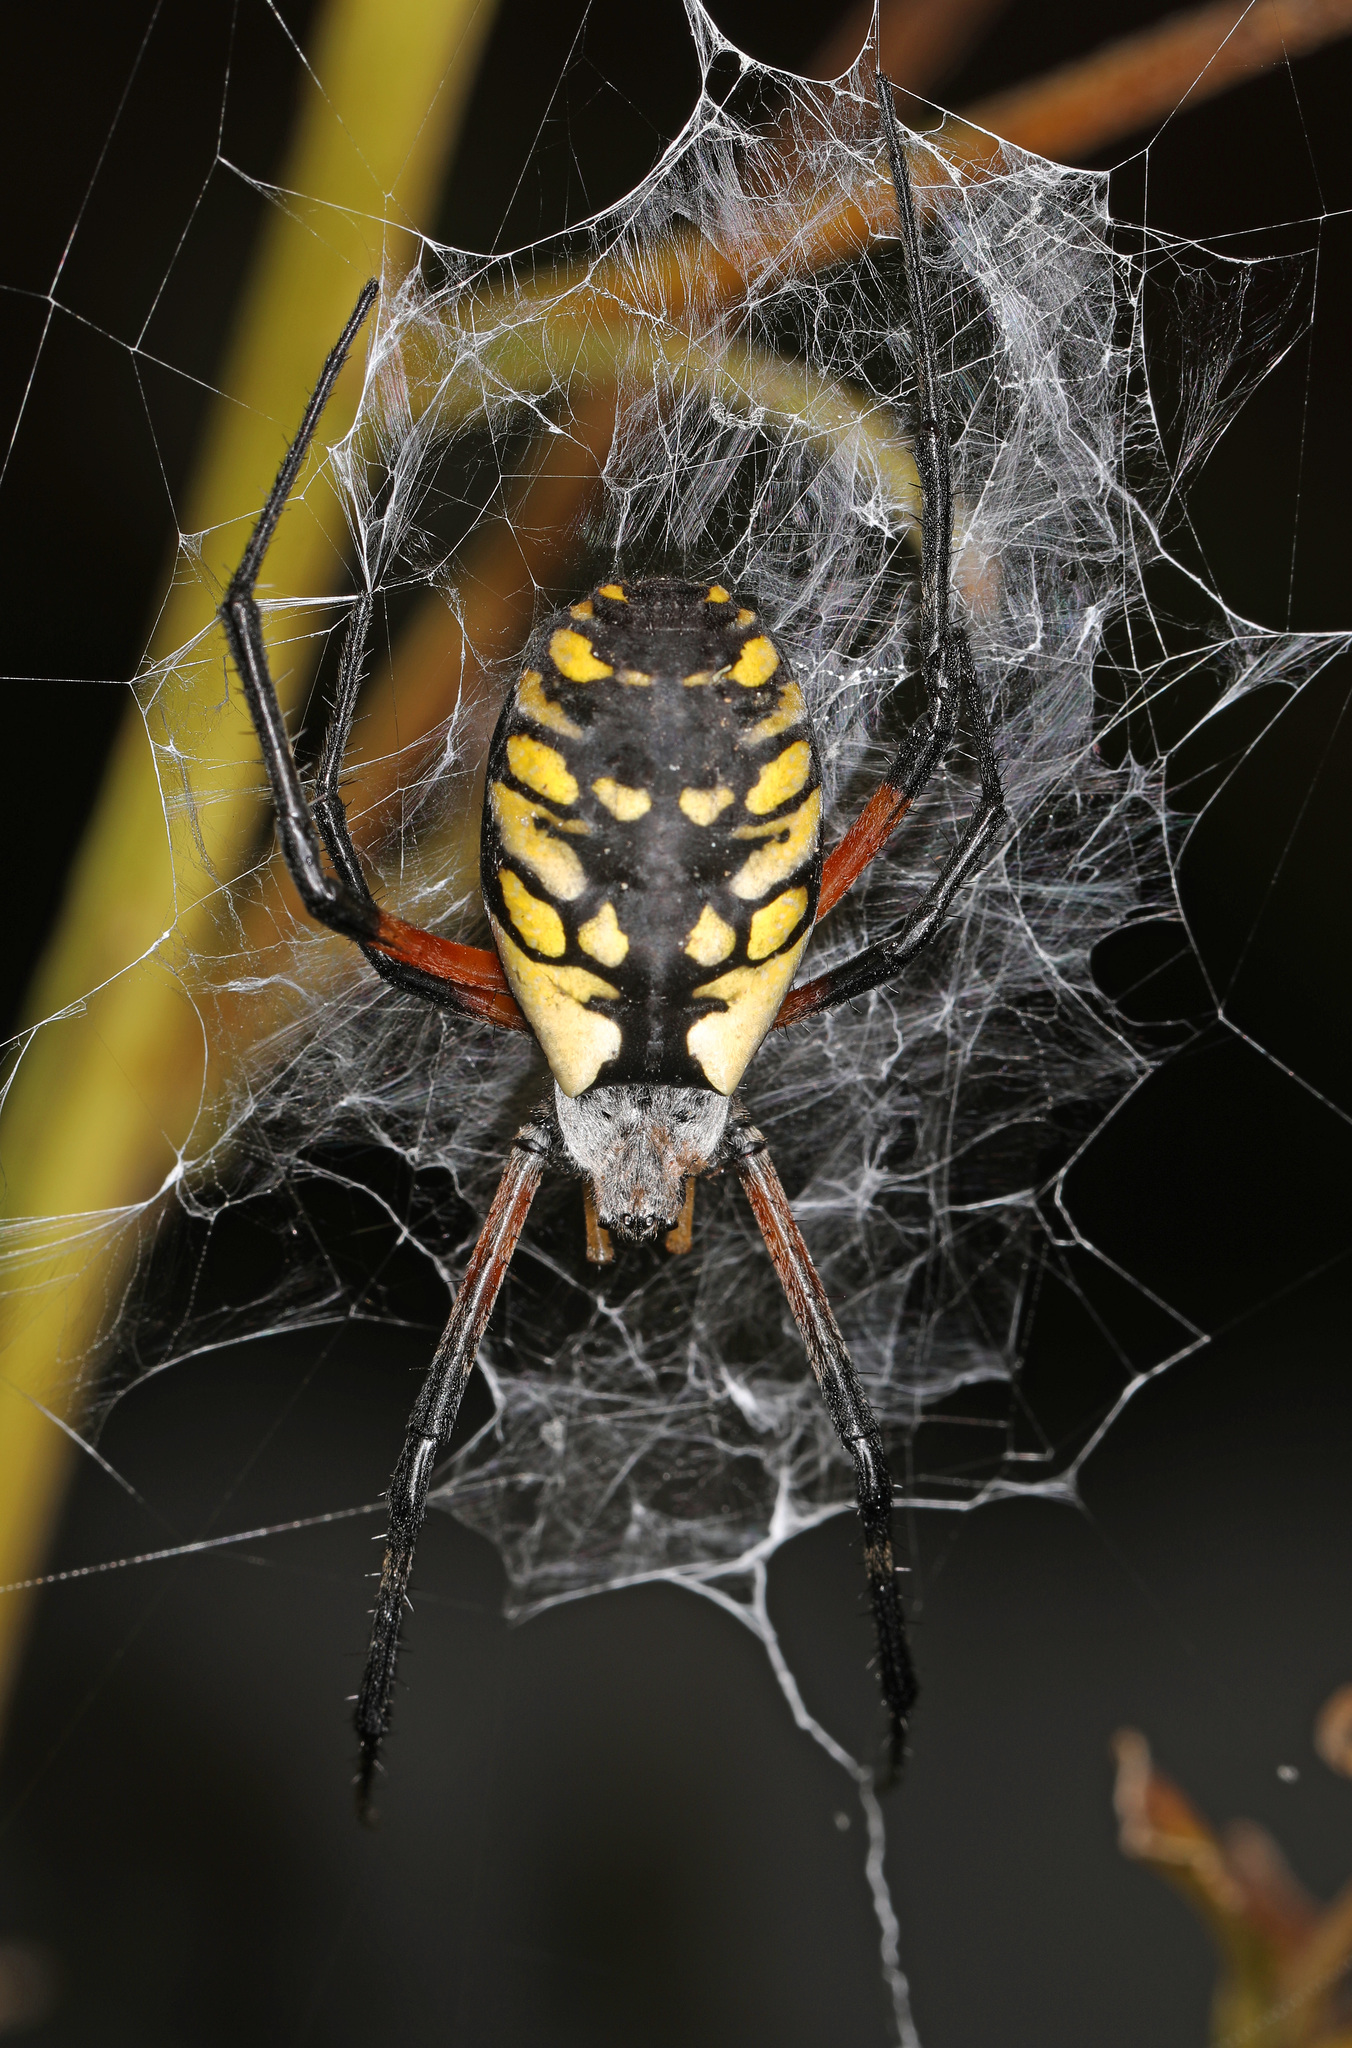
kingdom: Animalia
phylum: Arthropoda
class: Arachnida
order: Araneae
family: Araneidae
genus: Argiope
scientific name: Argiope aurantia
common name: Orb weavers
